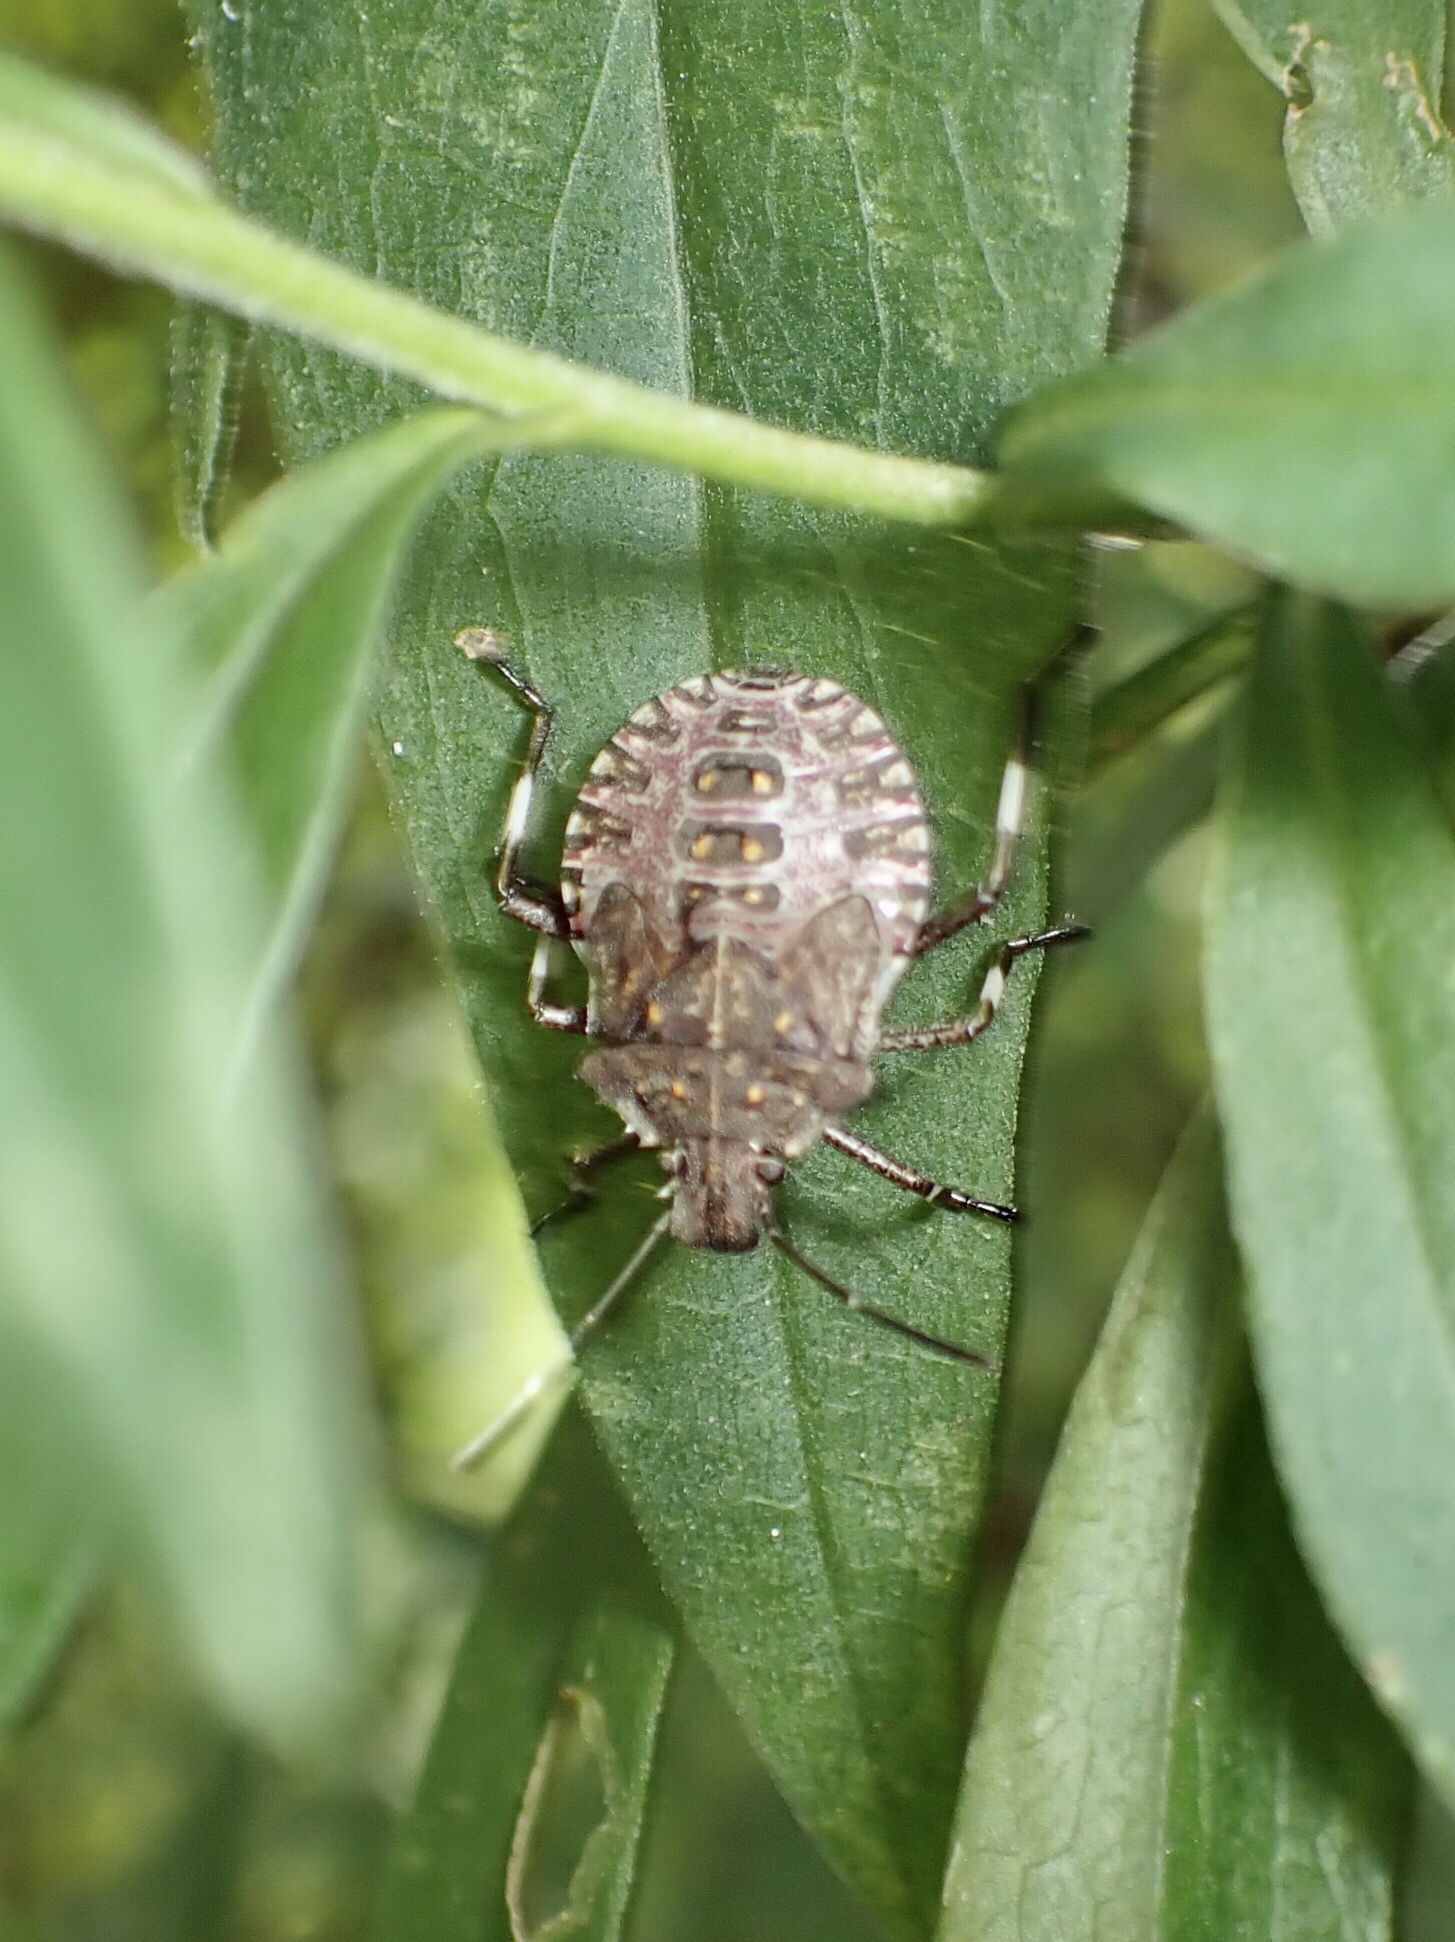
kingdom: Animalia
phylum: Arthropoda
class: Insecta
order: Hemiptera
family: Pentatomidae
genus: Halyomorpha
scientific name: Halyomorpha halys
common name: Brown marmorated stink bug
